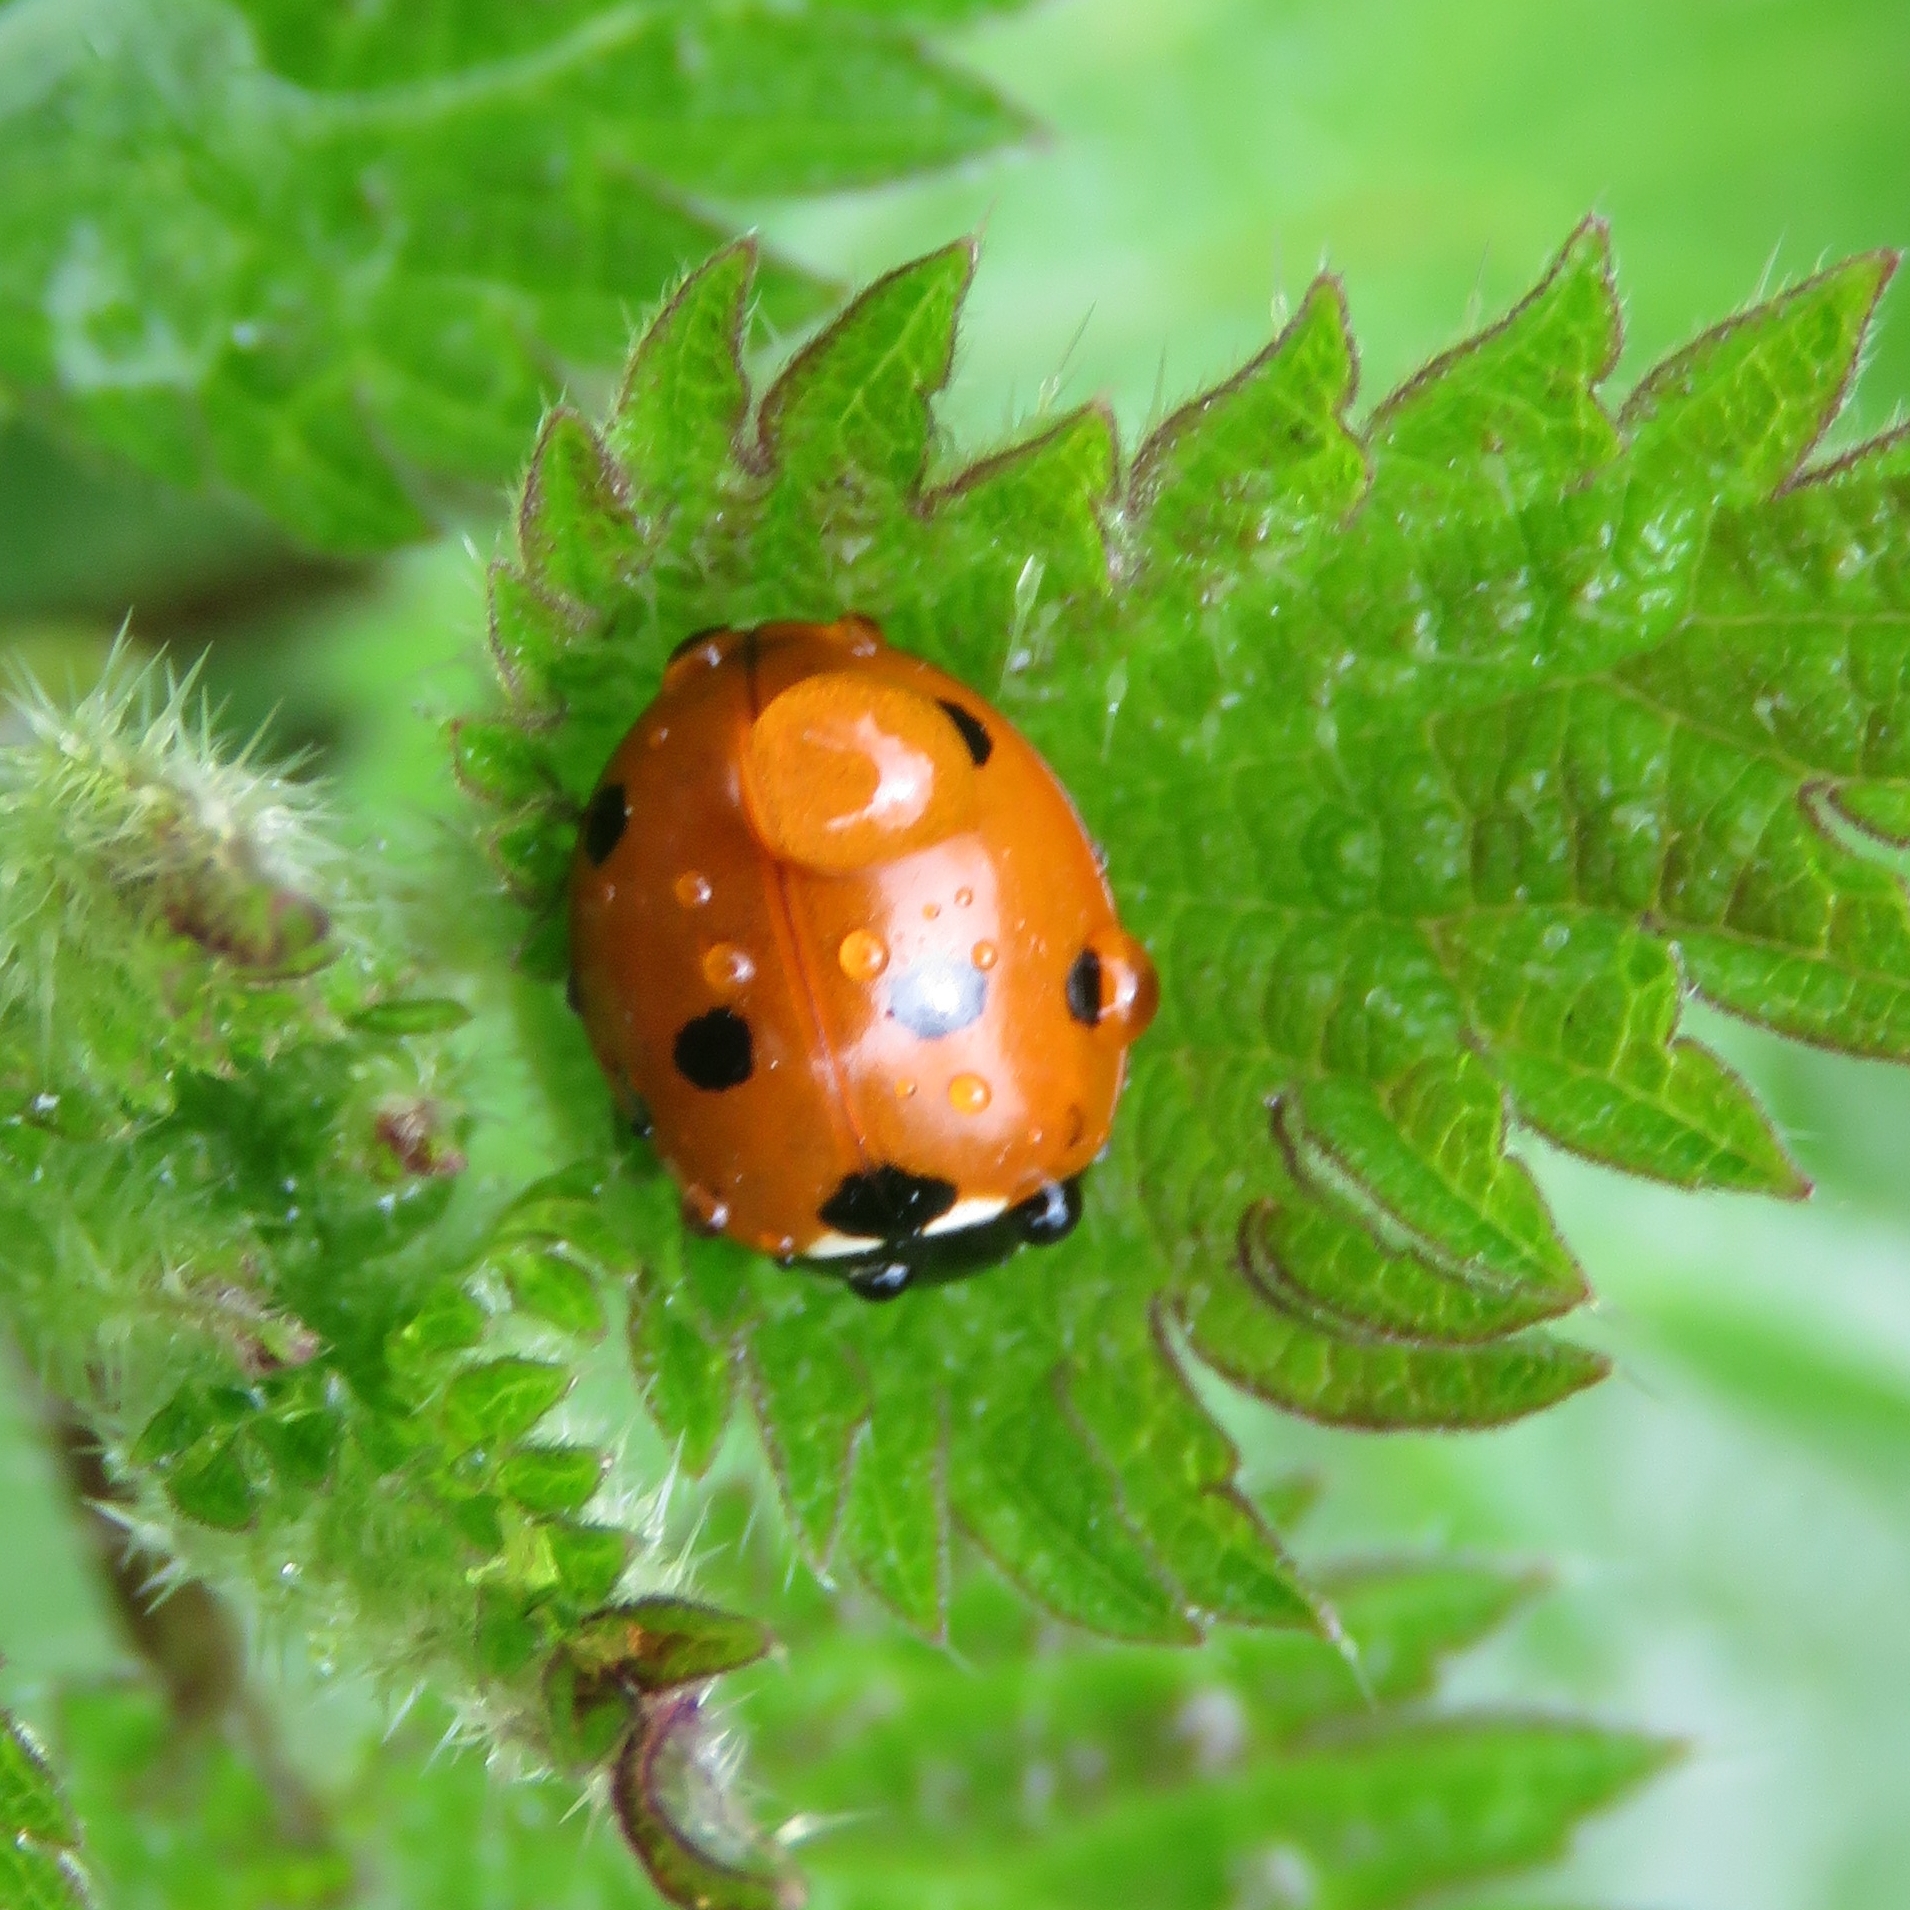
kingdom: Animalia
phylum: Arthropoda
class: Insecta
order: Coleoptera
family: Coccinellidae
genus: Coccinella
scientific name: Coccinella septempunctata
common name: Sevenspotted lady beetle
